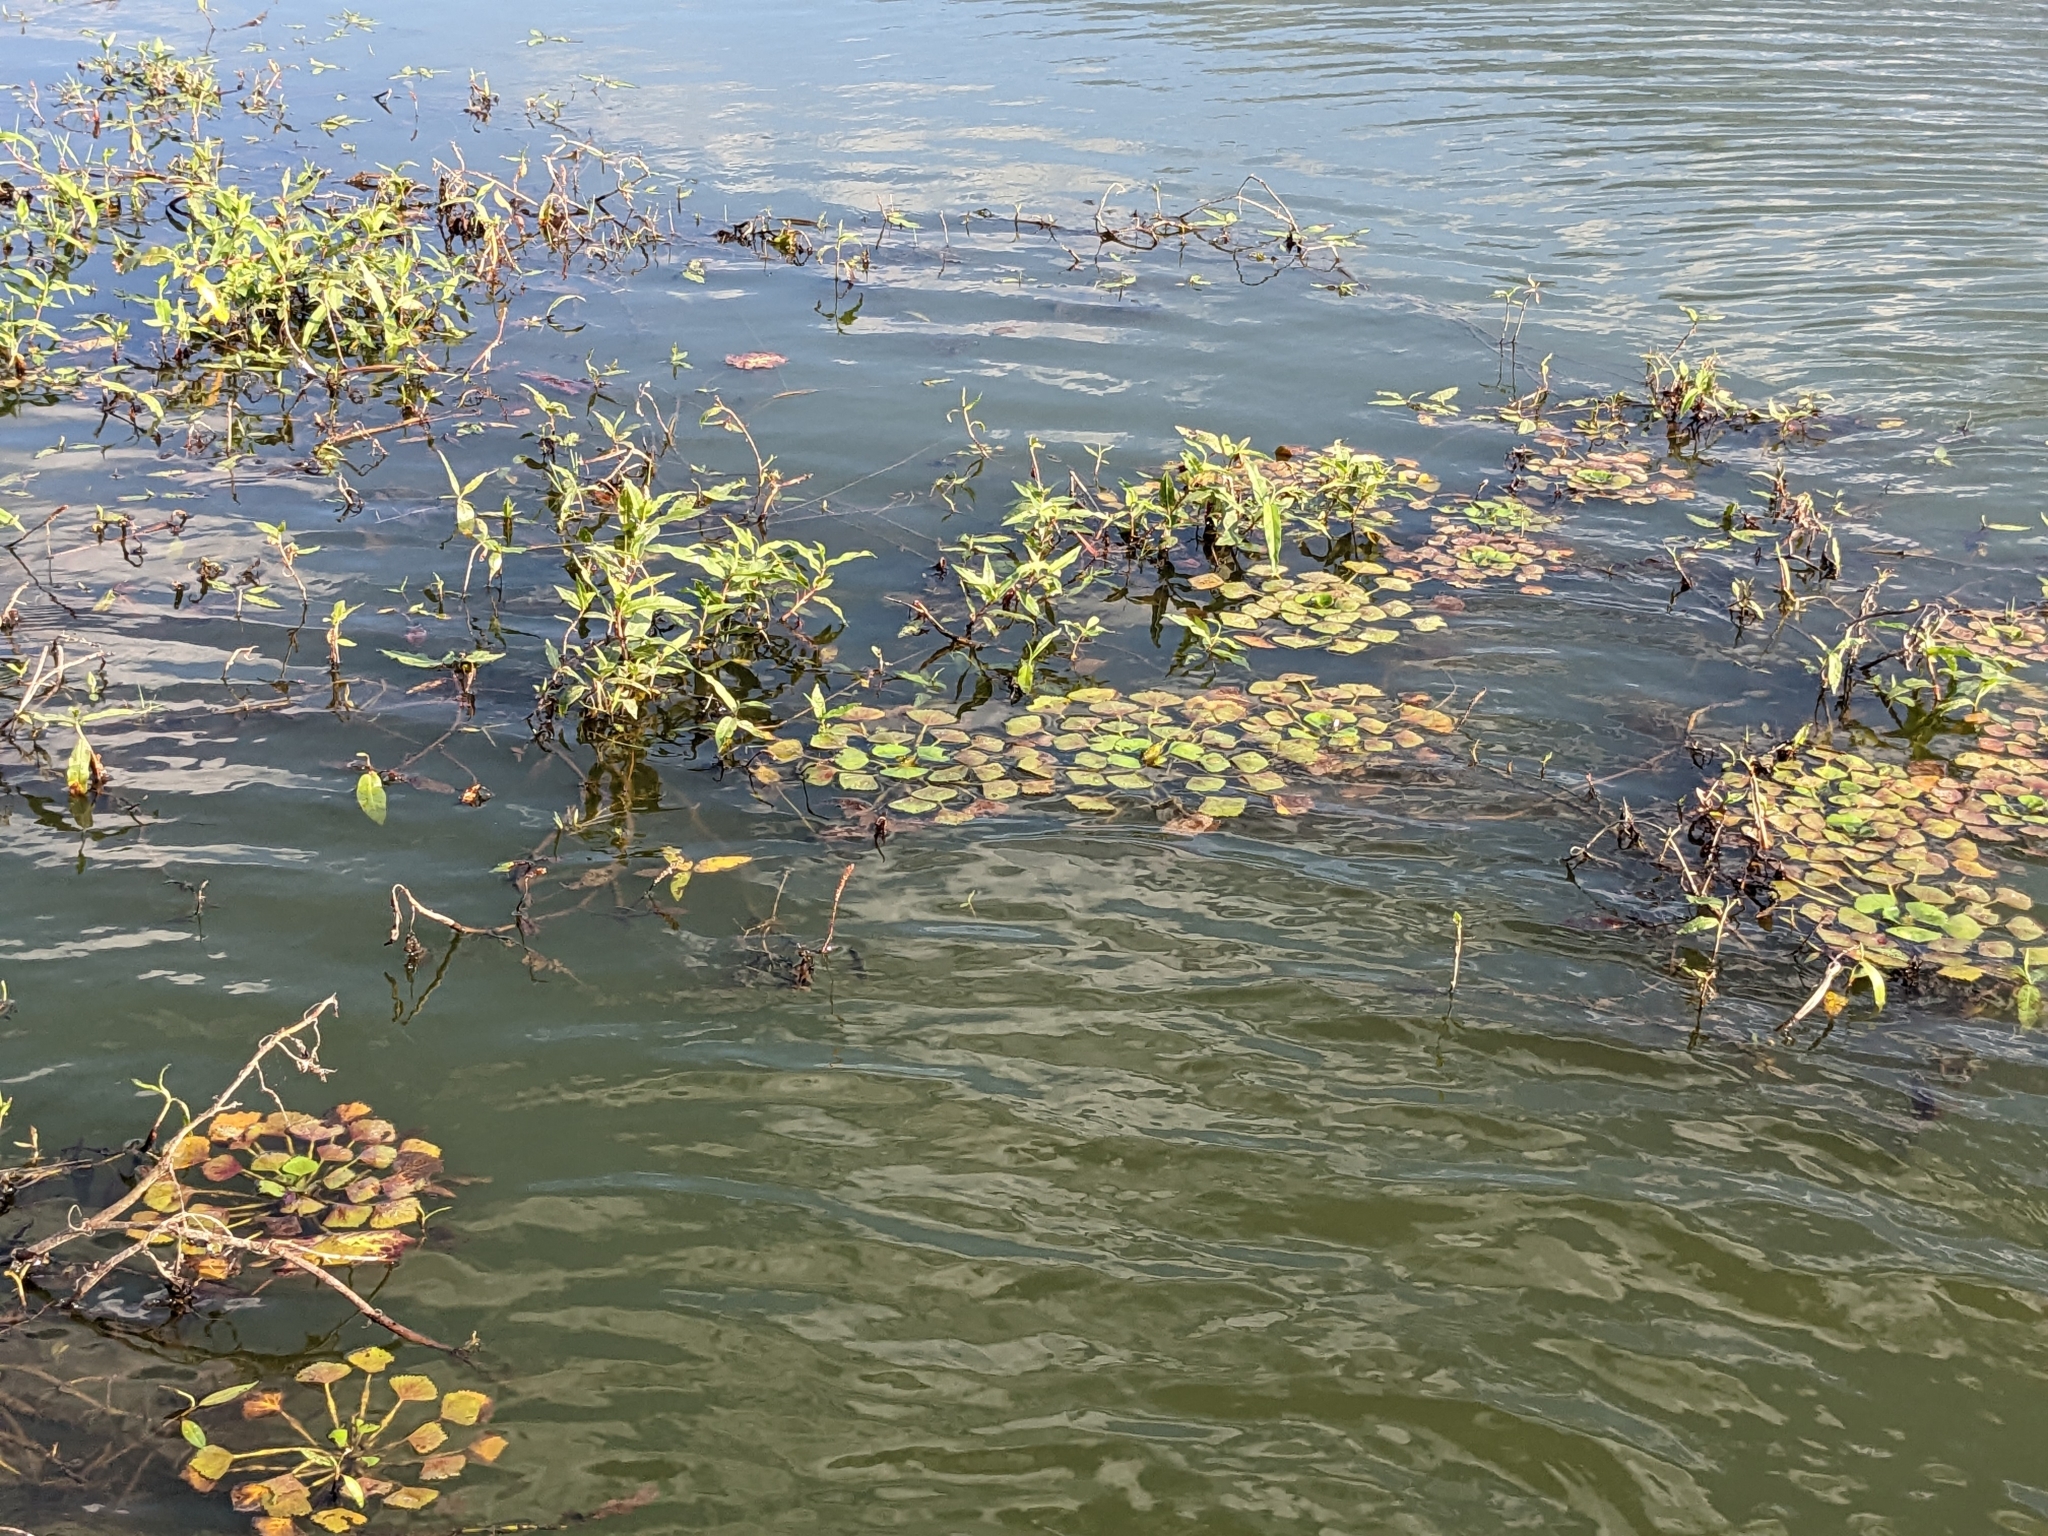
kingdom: Plantae
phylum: Tracheophyta
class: Magnoliopsida
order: Myrtales
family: Lythraceae
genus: Trapa
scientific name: Trapa natans
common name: Water chestnut
